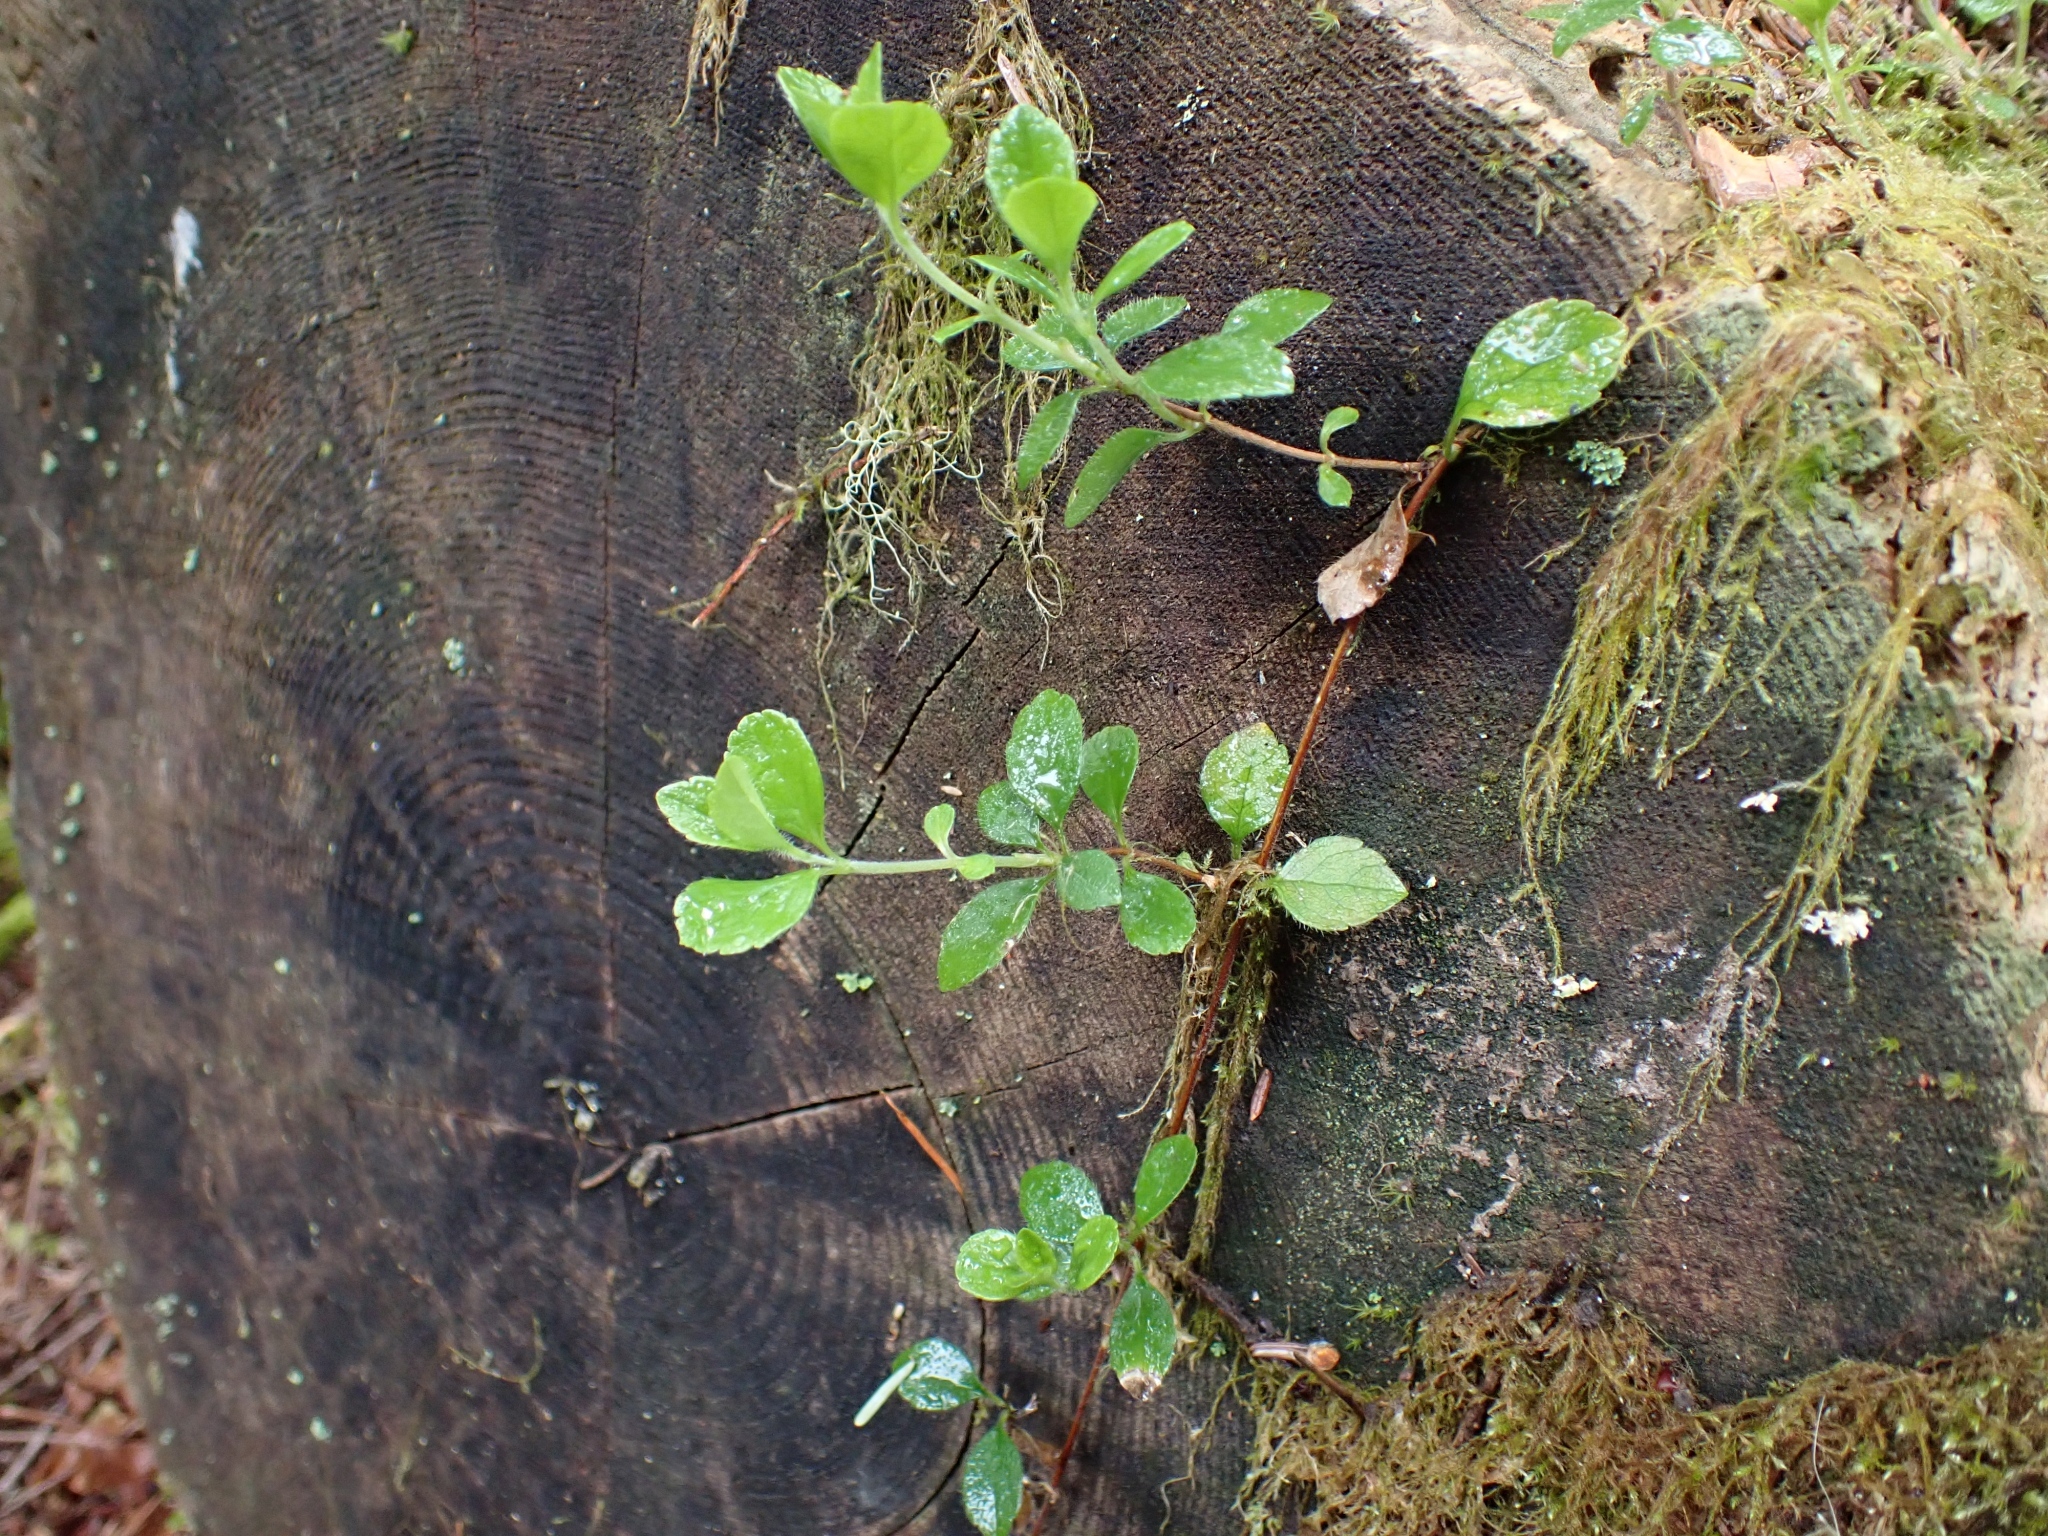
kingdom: Plantae
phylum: Tracheophyta
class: Magnoliopsida
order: Dipsacales
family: Caprifoliaceae
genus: Linnaea
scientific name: Linnaea borealis
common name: Twinflower
